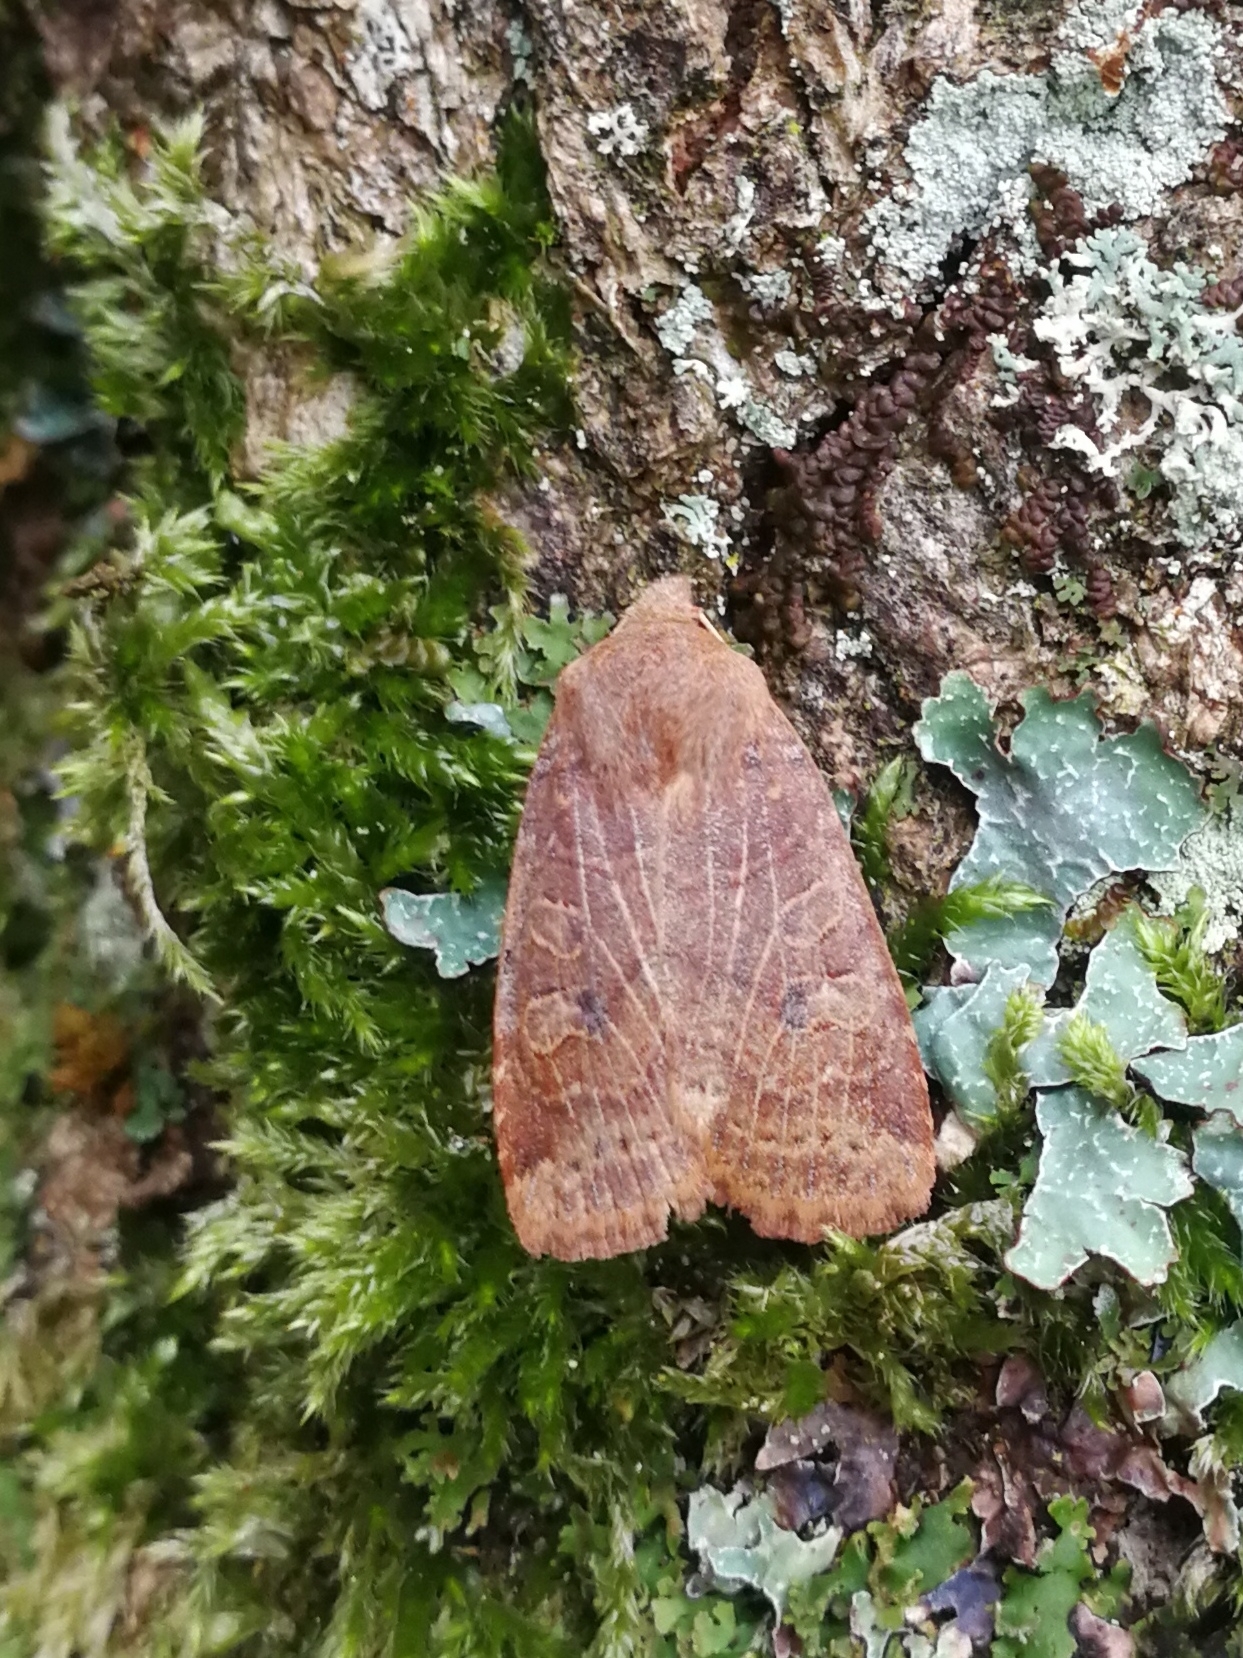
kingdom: Animalia
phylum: Arthropoda
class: Insecta
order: Lepidoptera
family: Noctuidae
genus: Conistra
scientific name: Conistra vaccinii
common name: Chestnut
